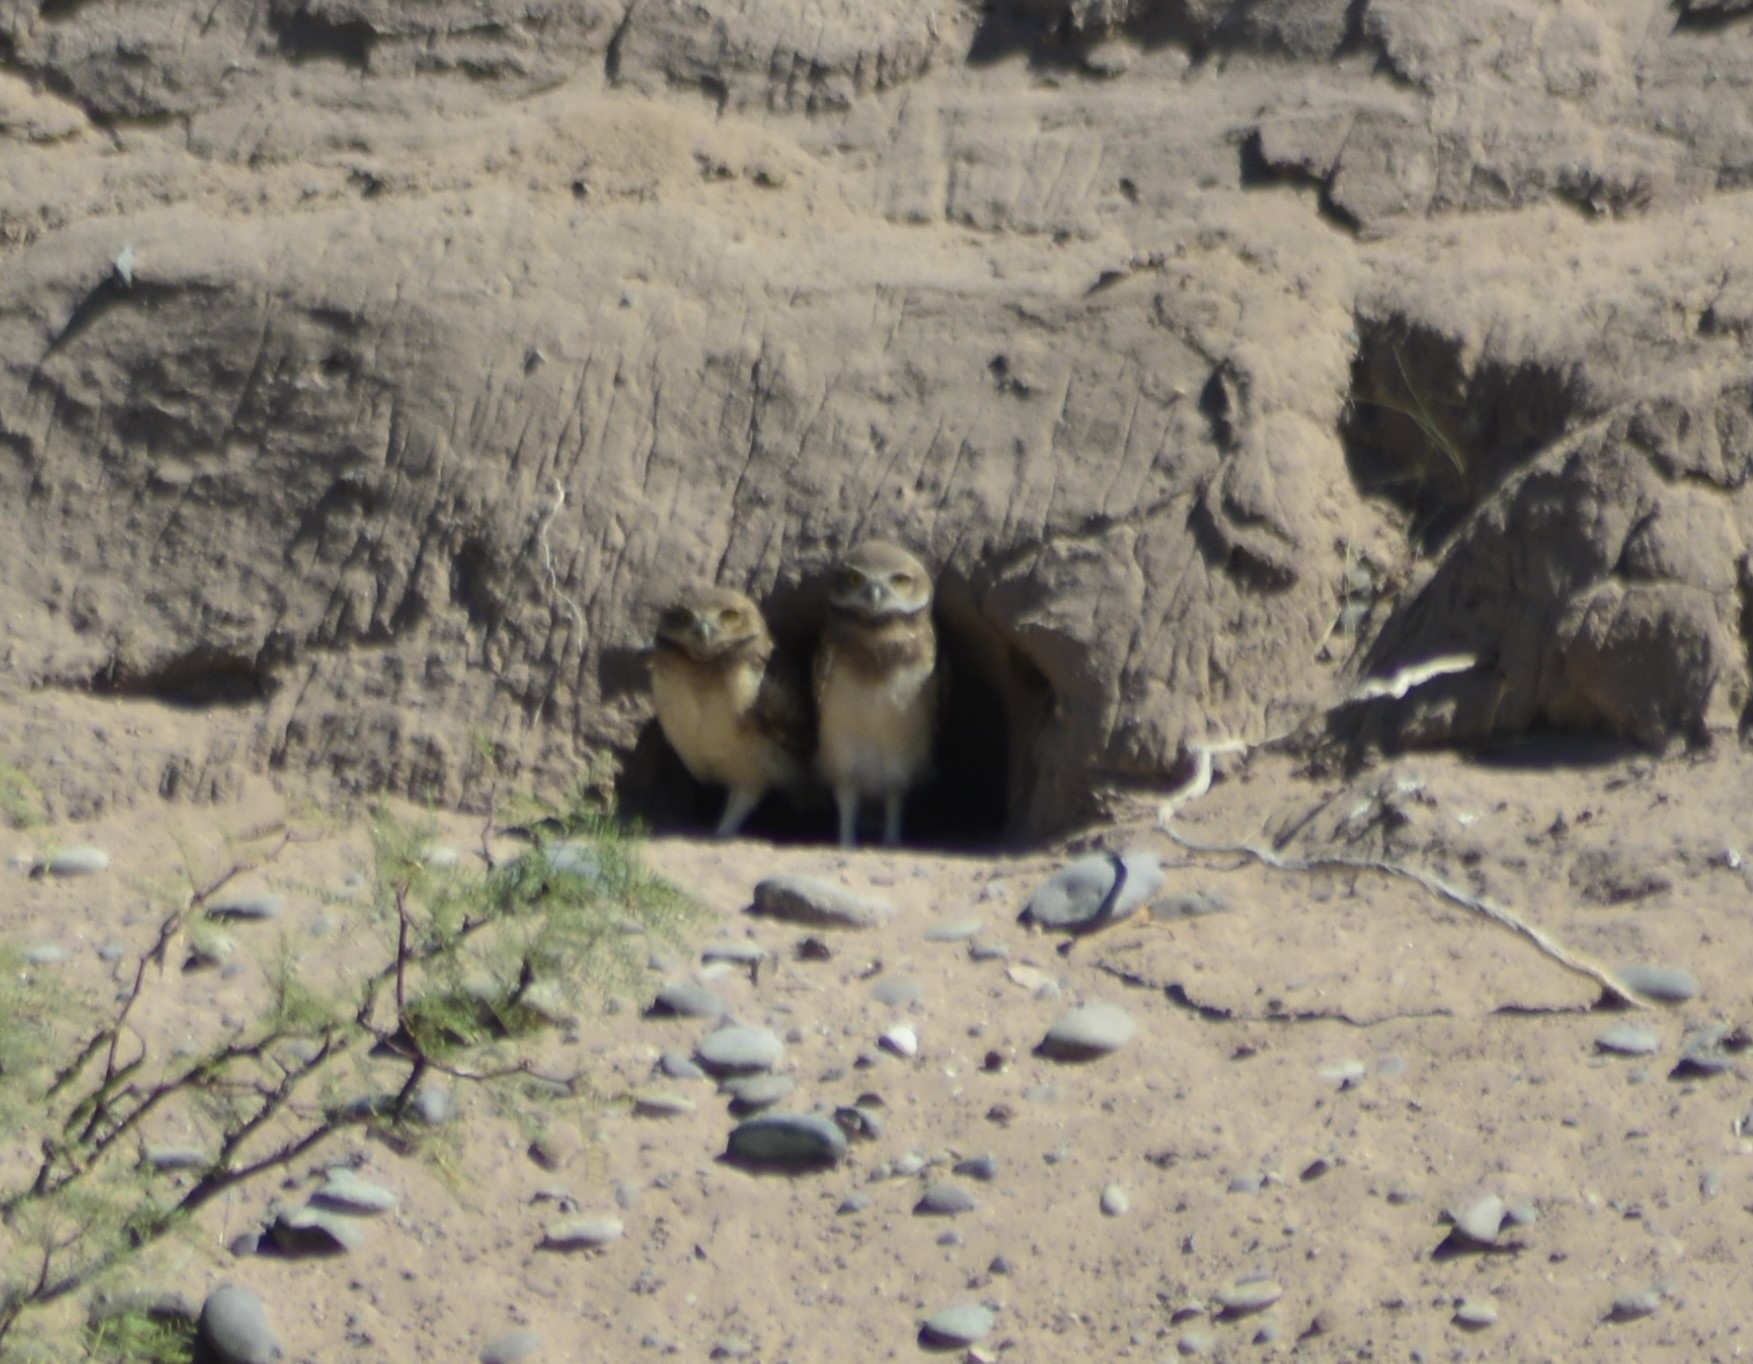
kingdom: Animalia
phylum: Chordata
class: Aves
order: Strigiformes
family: Strigidae
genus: Athene
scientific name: Athene cunicularia
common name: Burrowing owl
